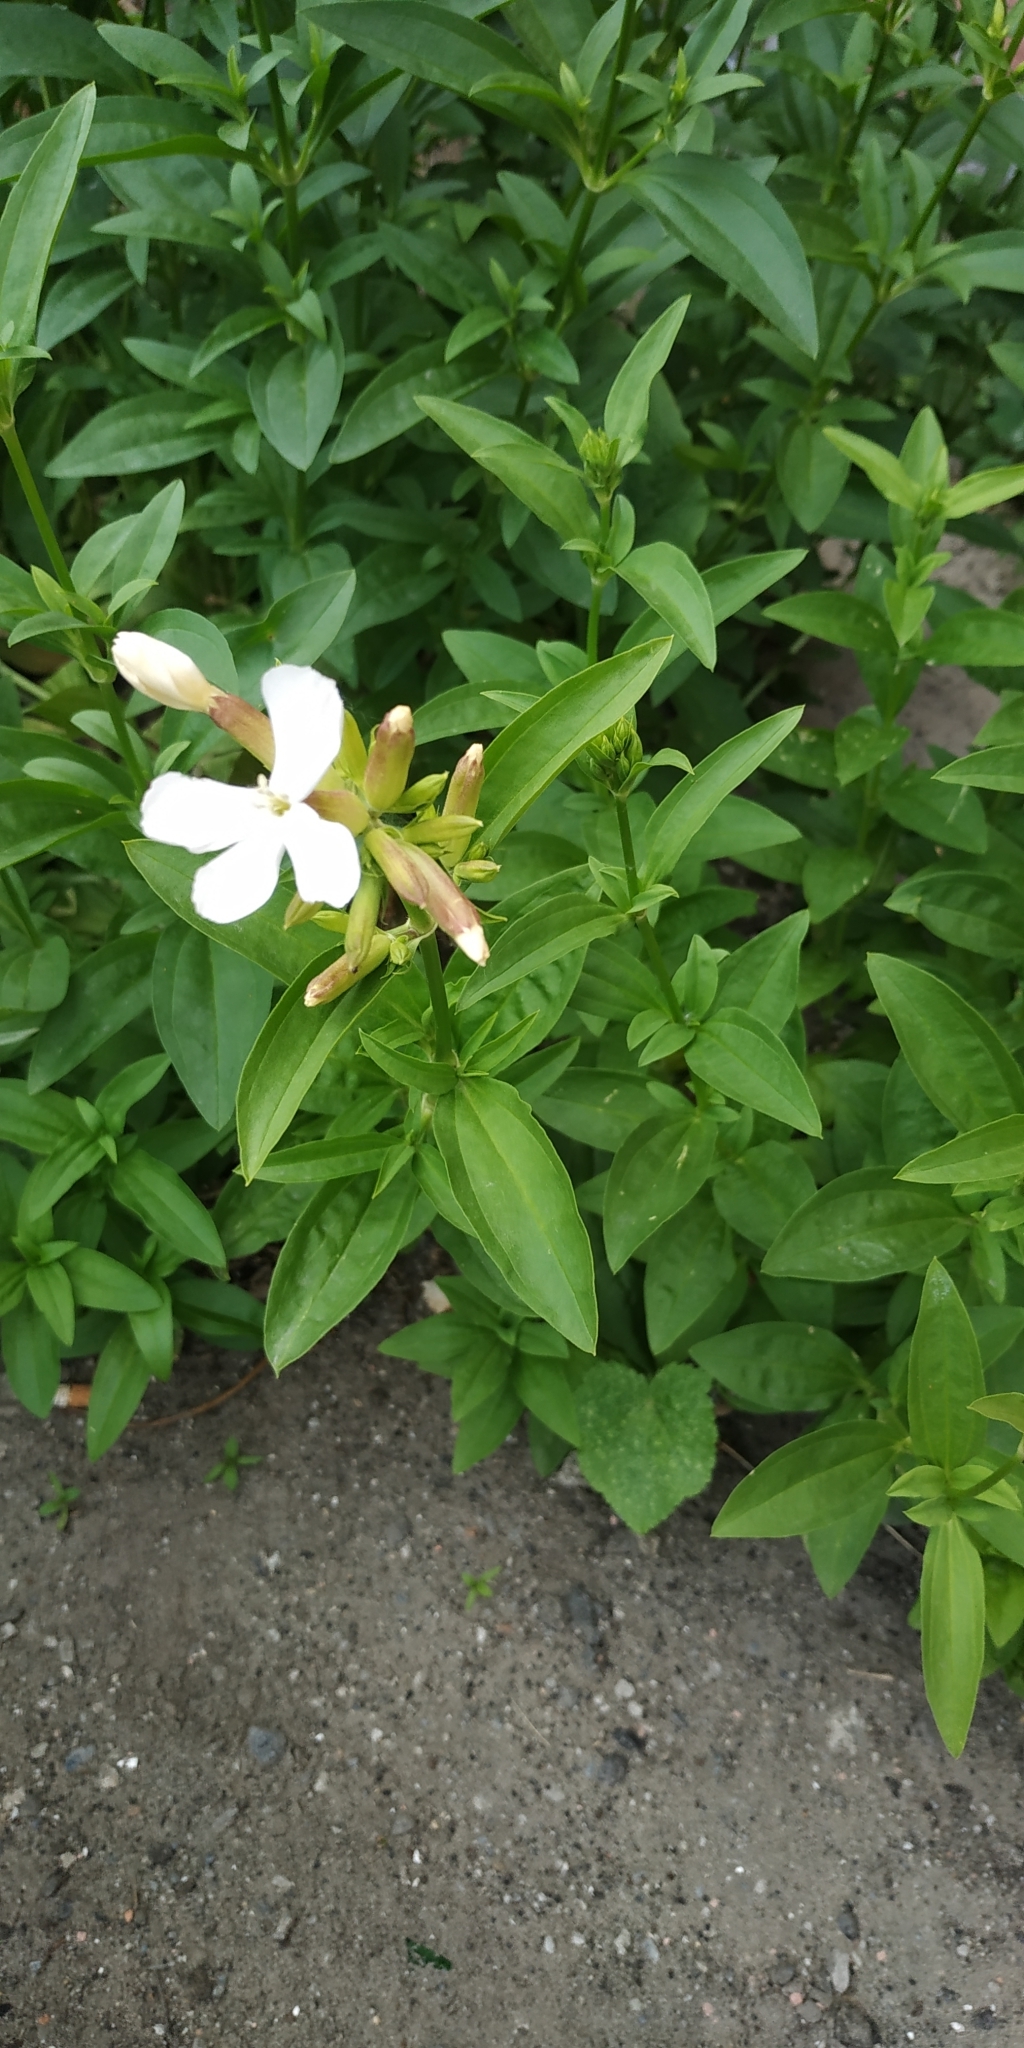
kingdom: Plantae
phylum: Tracheophyta
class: Magnoliopsida
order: Caryophyllales
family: Caryophyllaceae
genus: Saponaria
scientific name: Saponaria officinalis
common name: Soapwort
